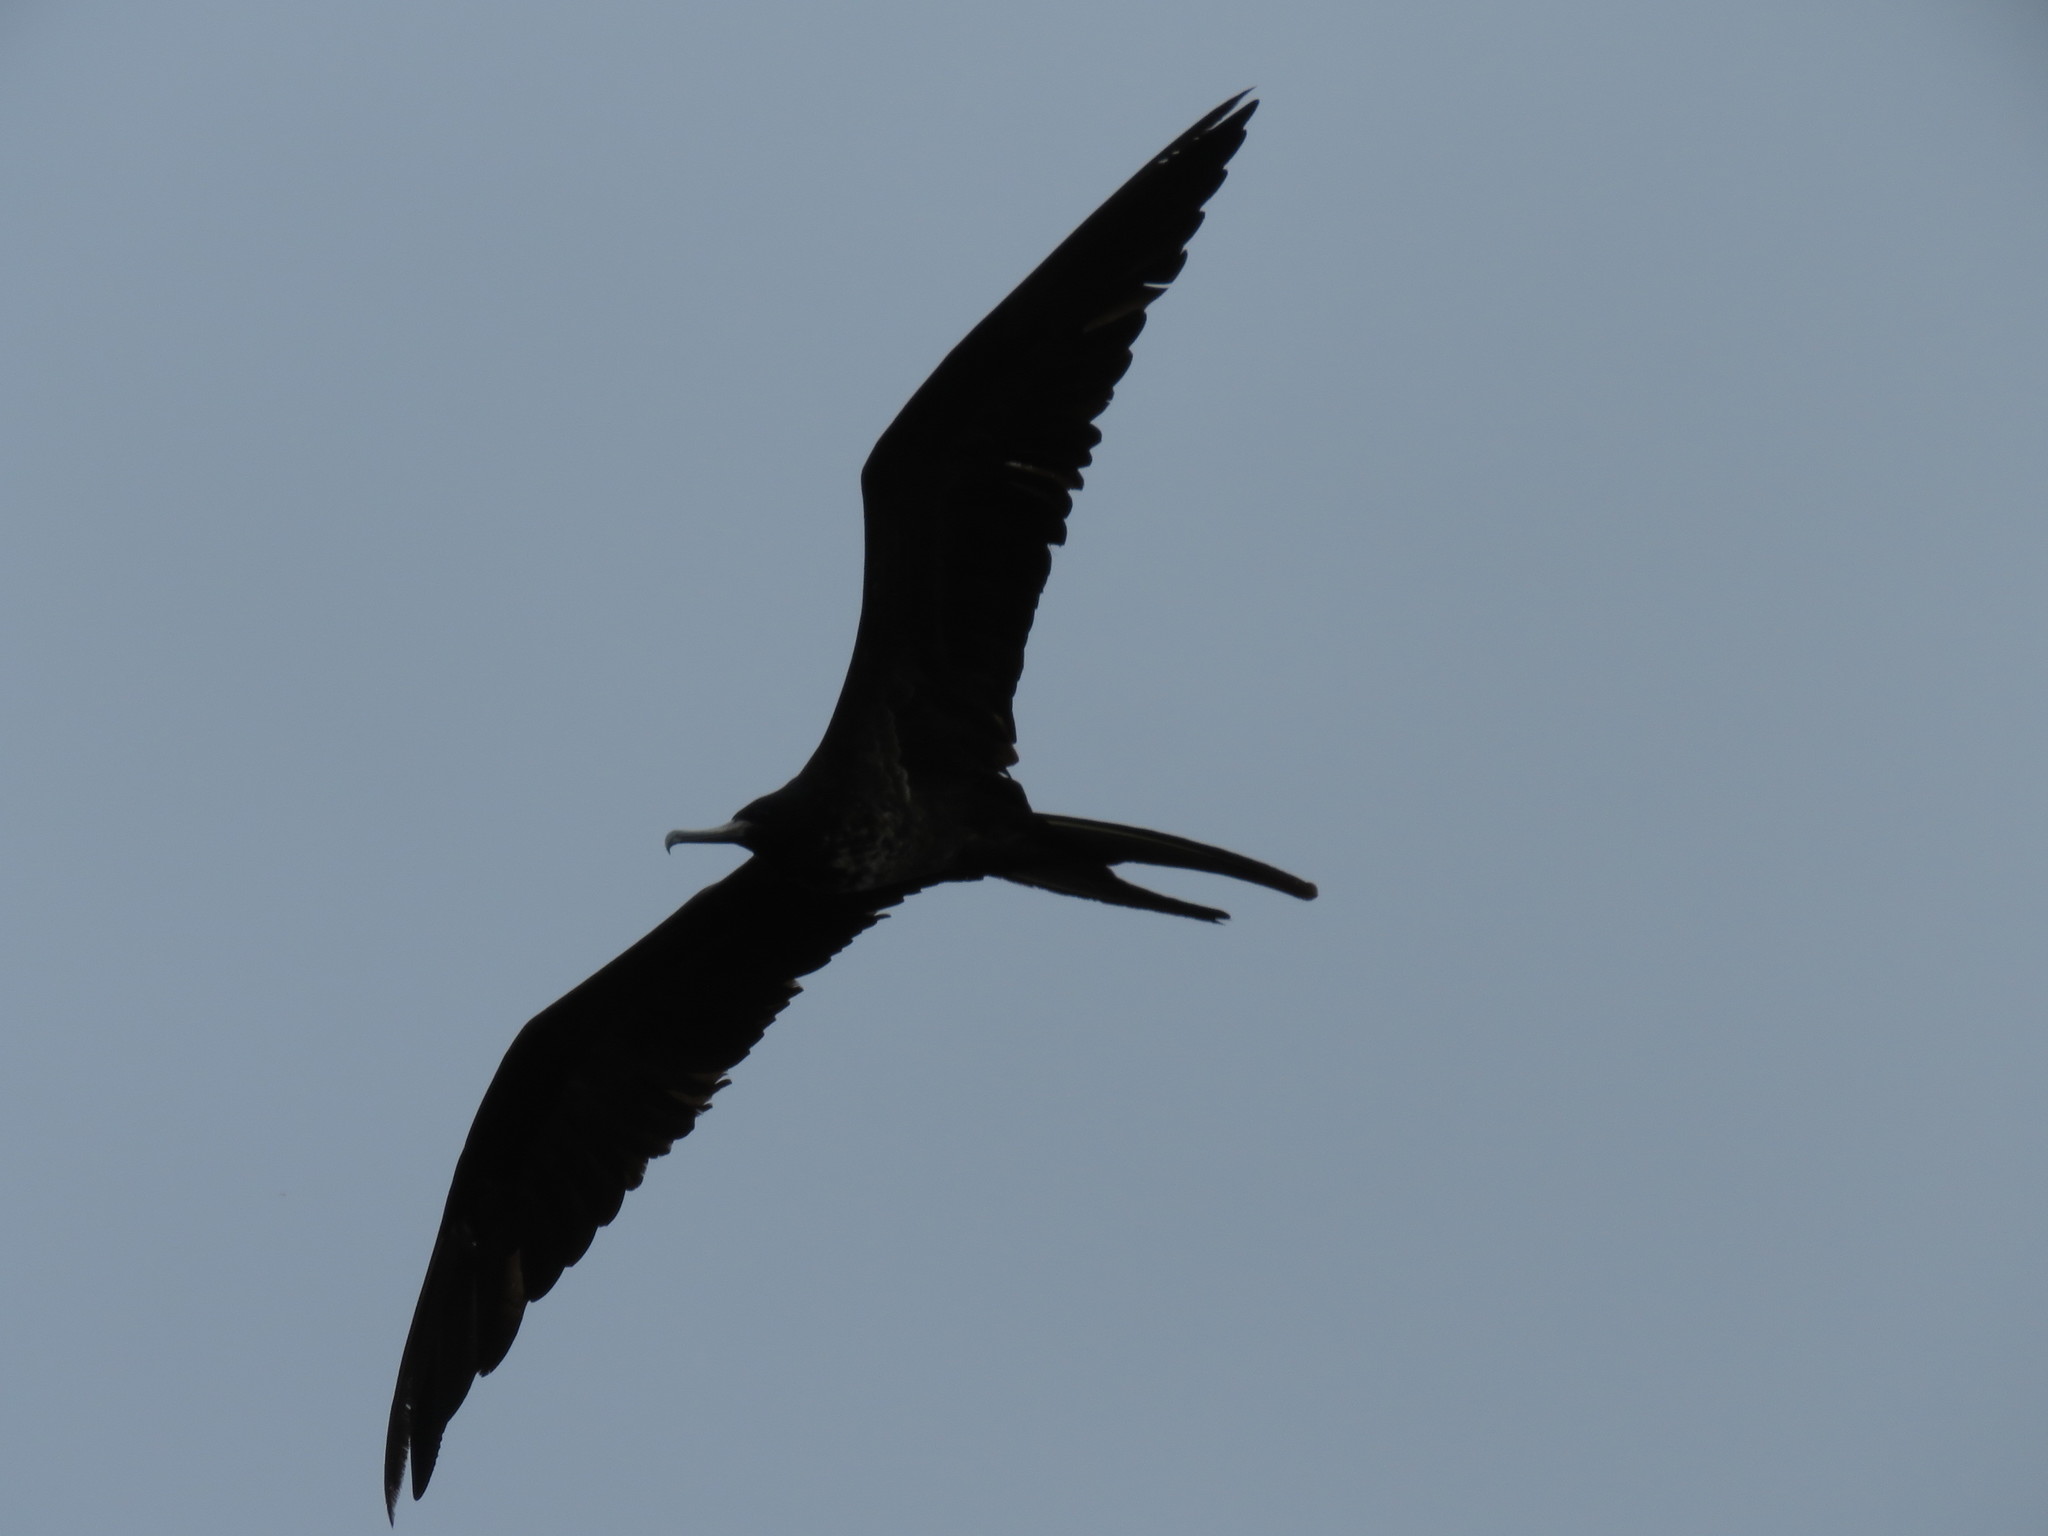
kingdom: Animalia
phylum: Chordata
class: Aves
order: Suliformes
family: Fregatidae
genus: Fregata
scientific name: Fregata magnificens
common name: Magnificent frigatebird
